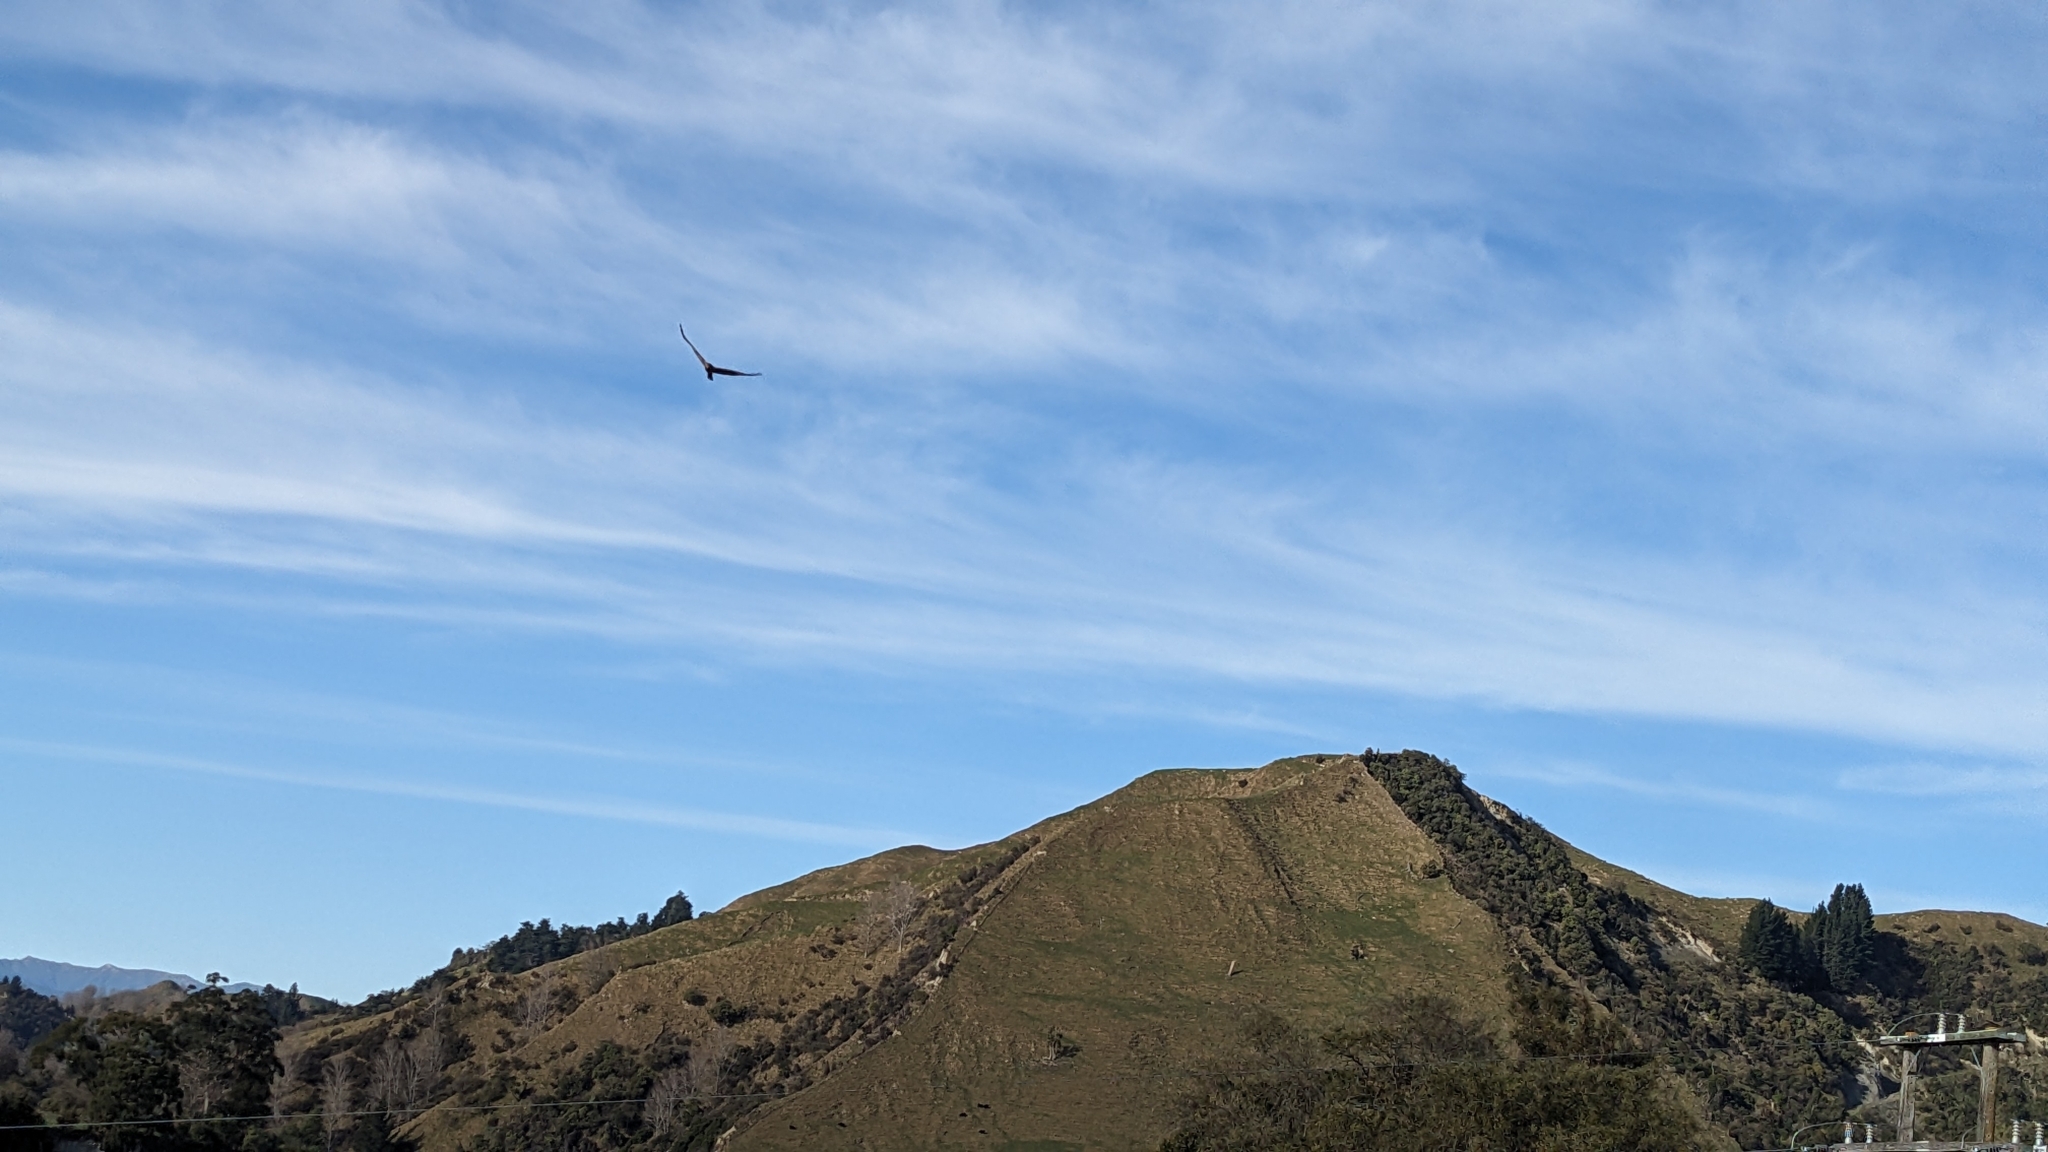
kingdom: Animalia
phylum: Chordata
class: Aves
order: Accipitriformes
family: Accipitridae
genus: Circus
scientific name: Circus approximans
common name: Swamp harrier
